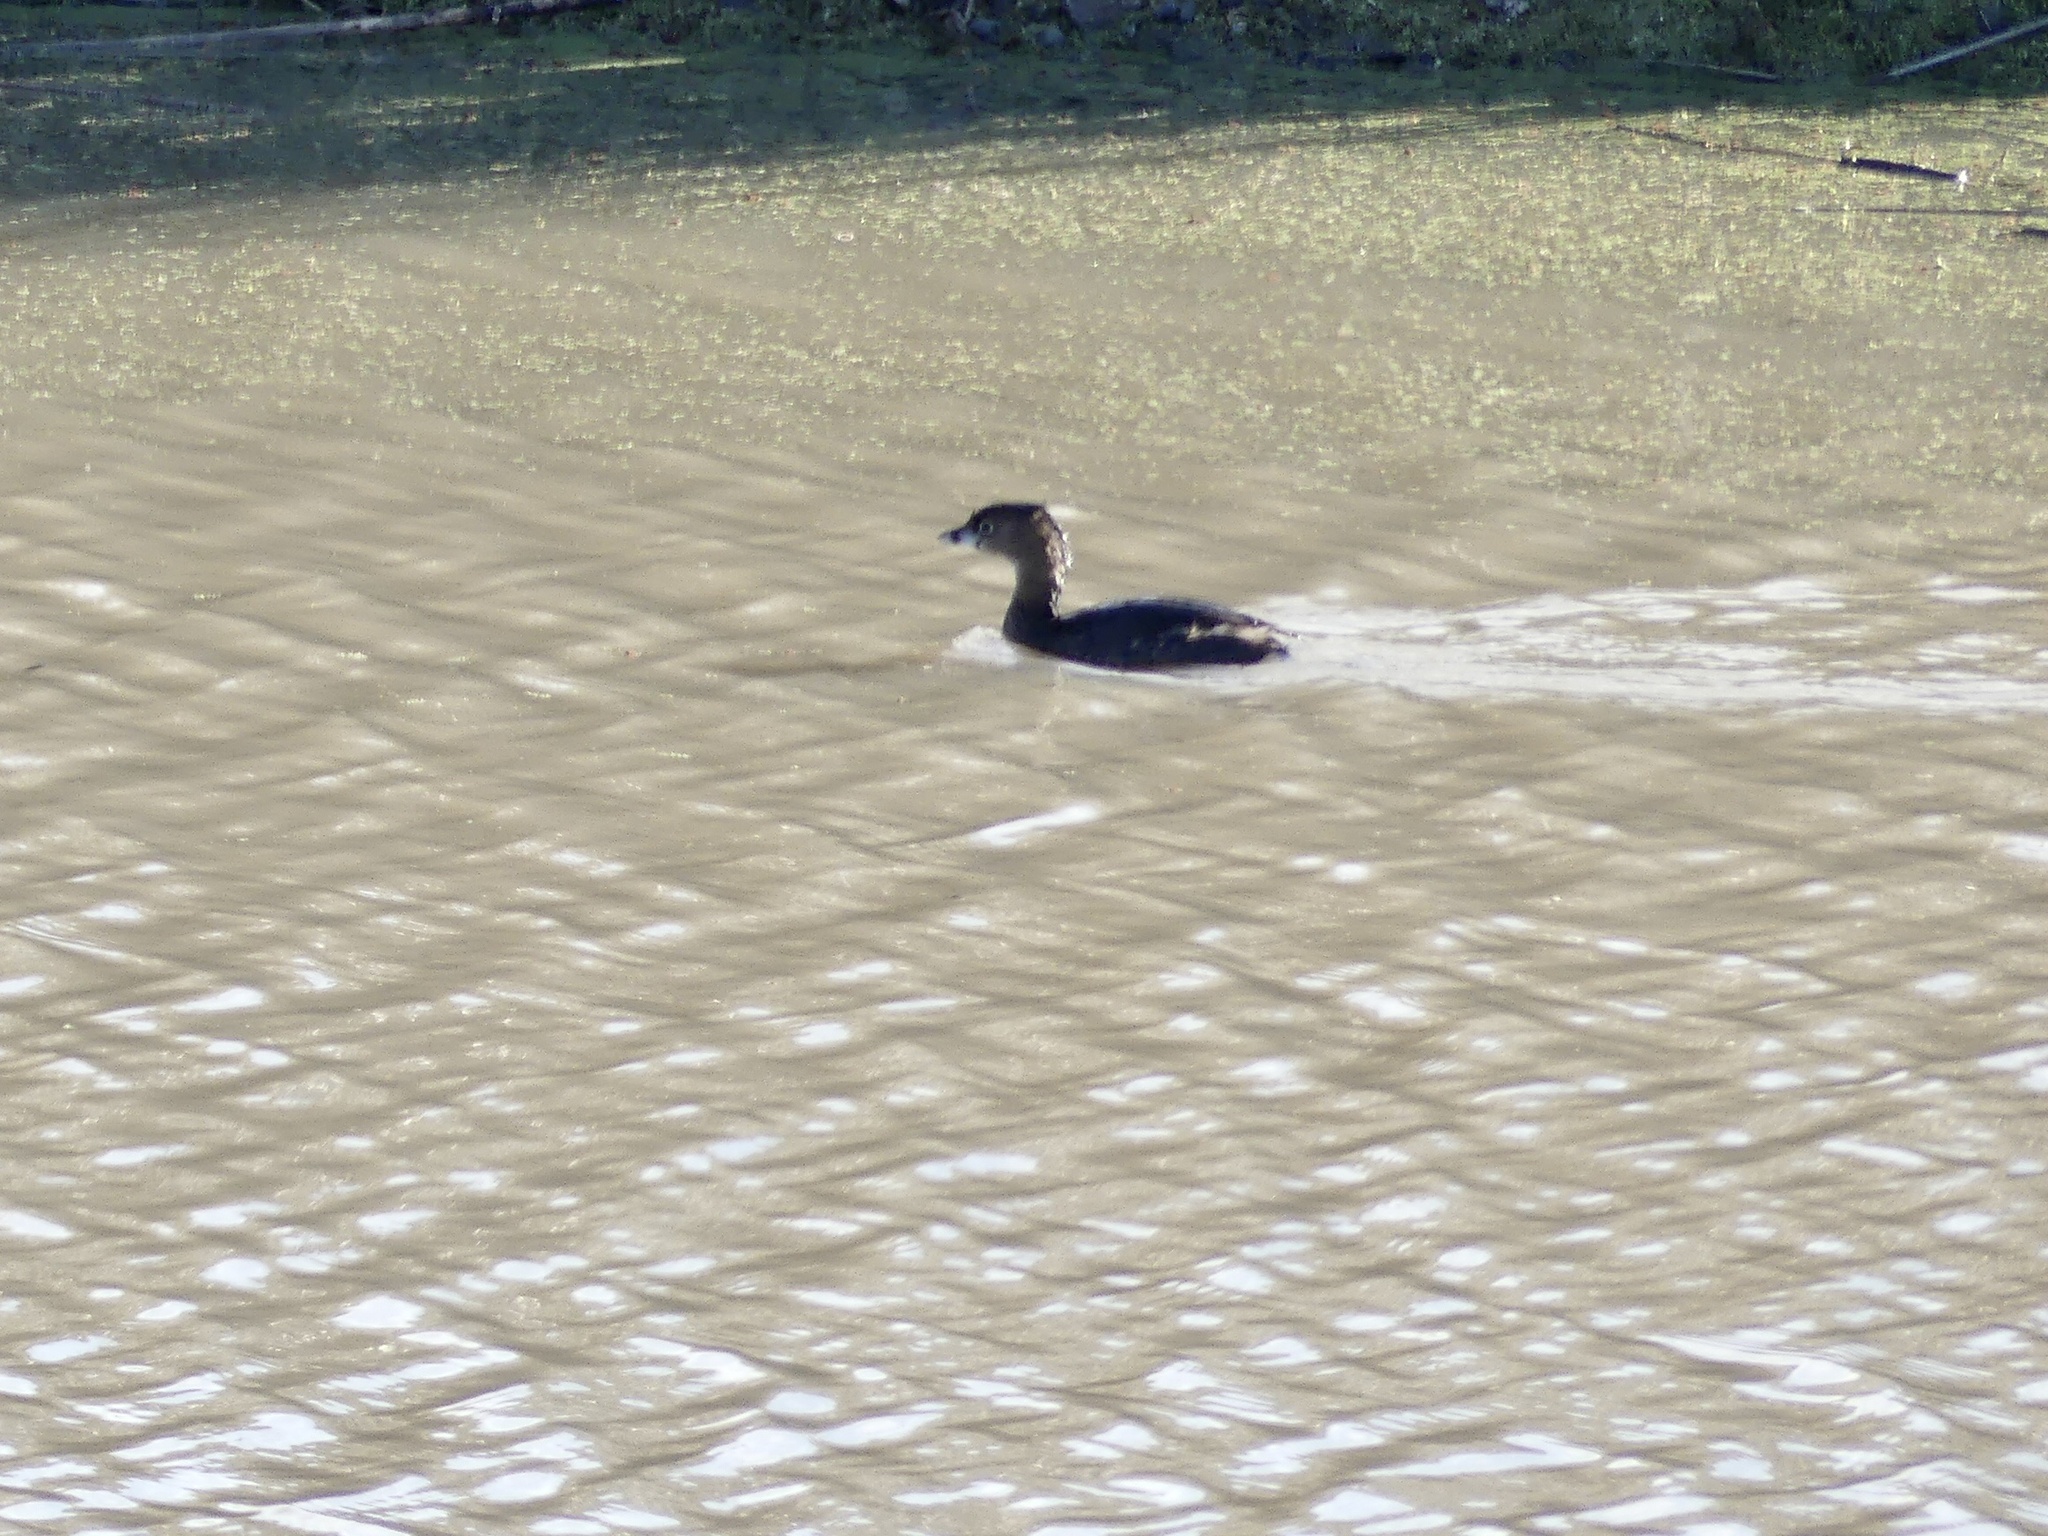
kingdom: Animalia
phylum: Chordata
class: Aves
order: Podicipediformes
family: Podicipedidae
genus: Podilymbus
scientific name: Podilymbus podiceps
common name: Pied-billed grebe
